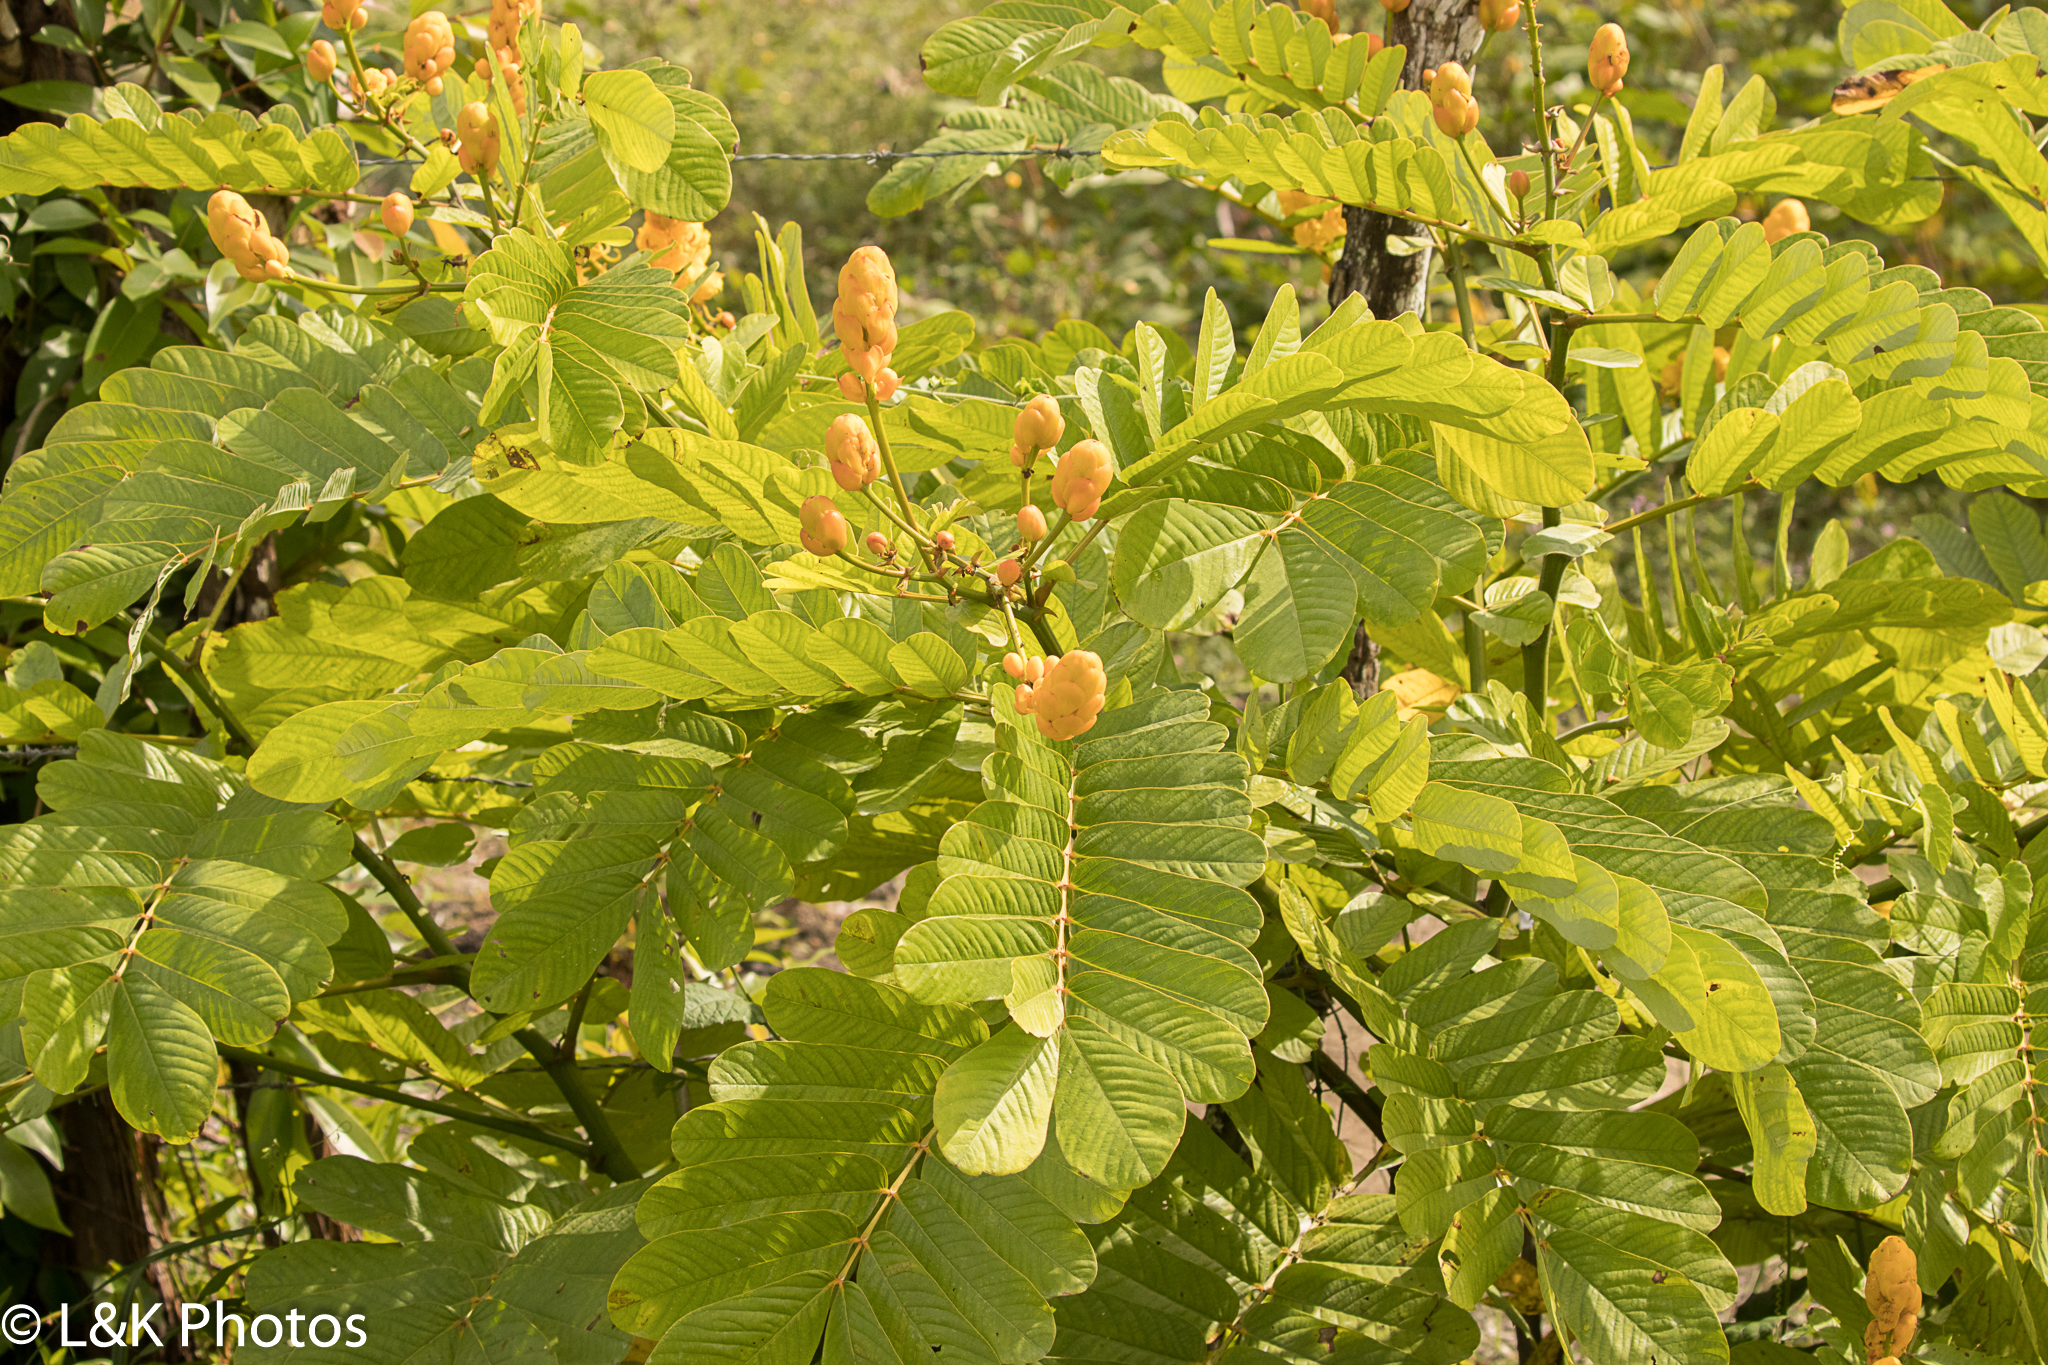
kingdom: Plantae
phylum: Tracheophyta
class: Magnoliopsida
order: Fabales
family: Fabaceae
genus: Senna
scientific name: Senna alata
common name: Emperor's candlesticks
